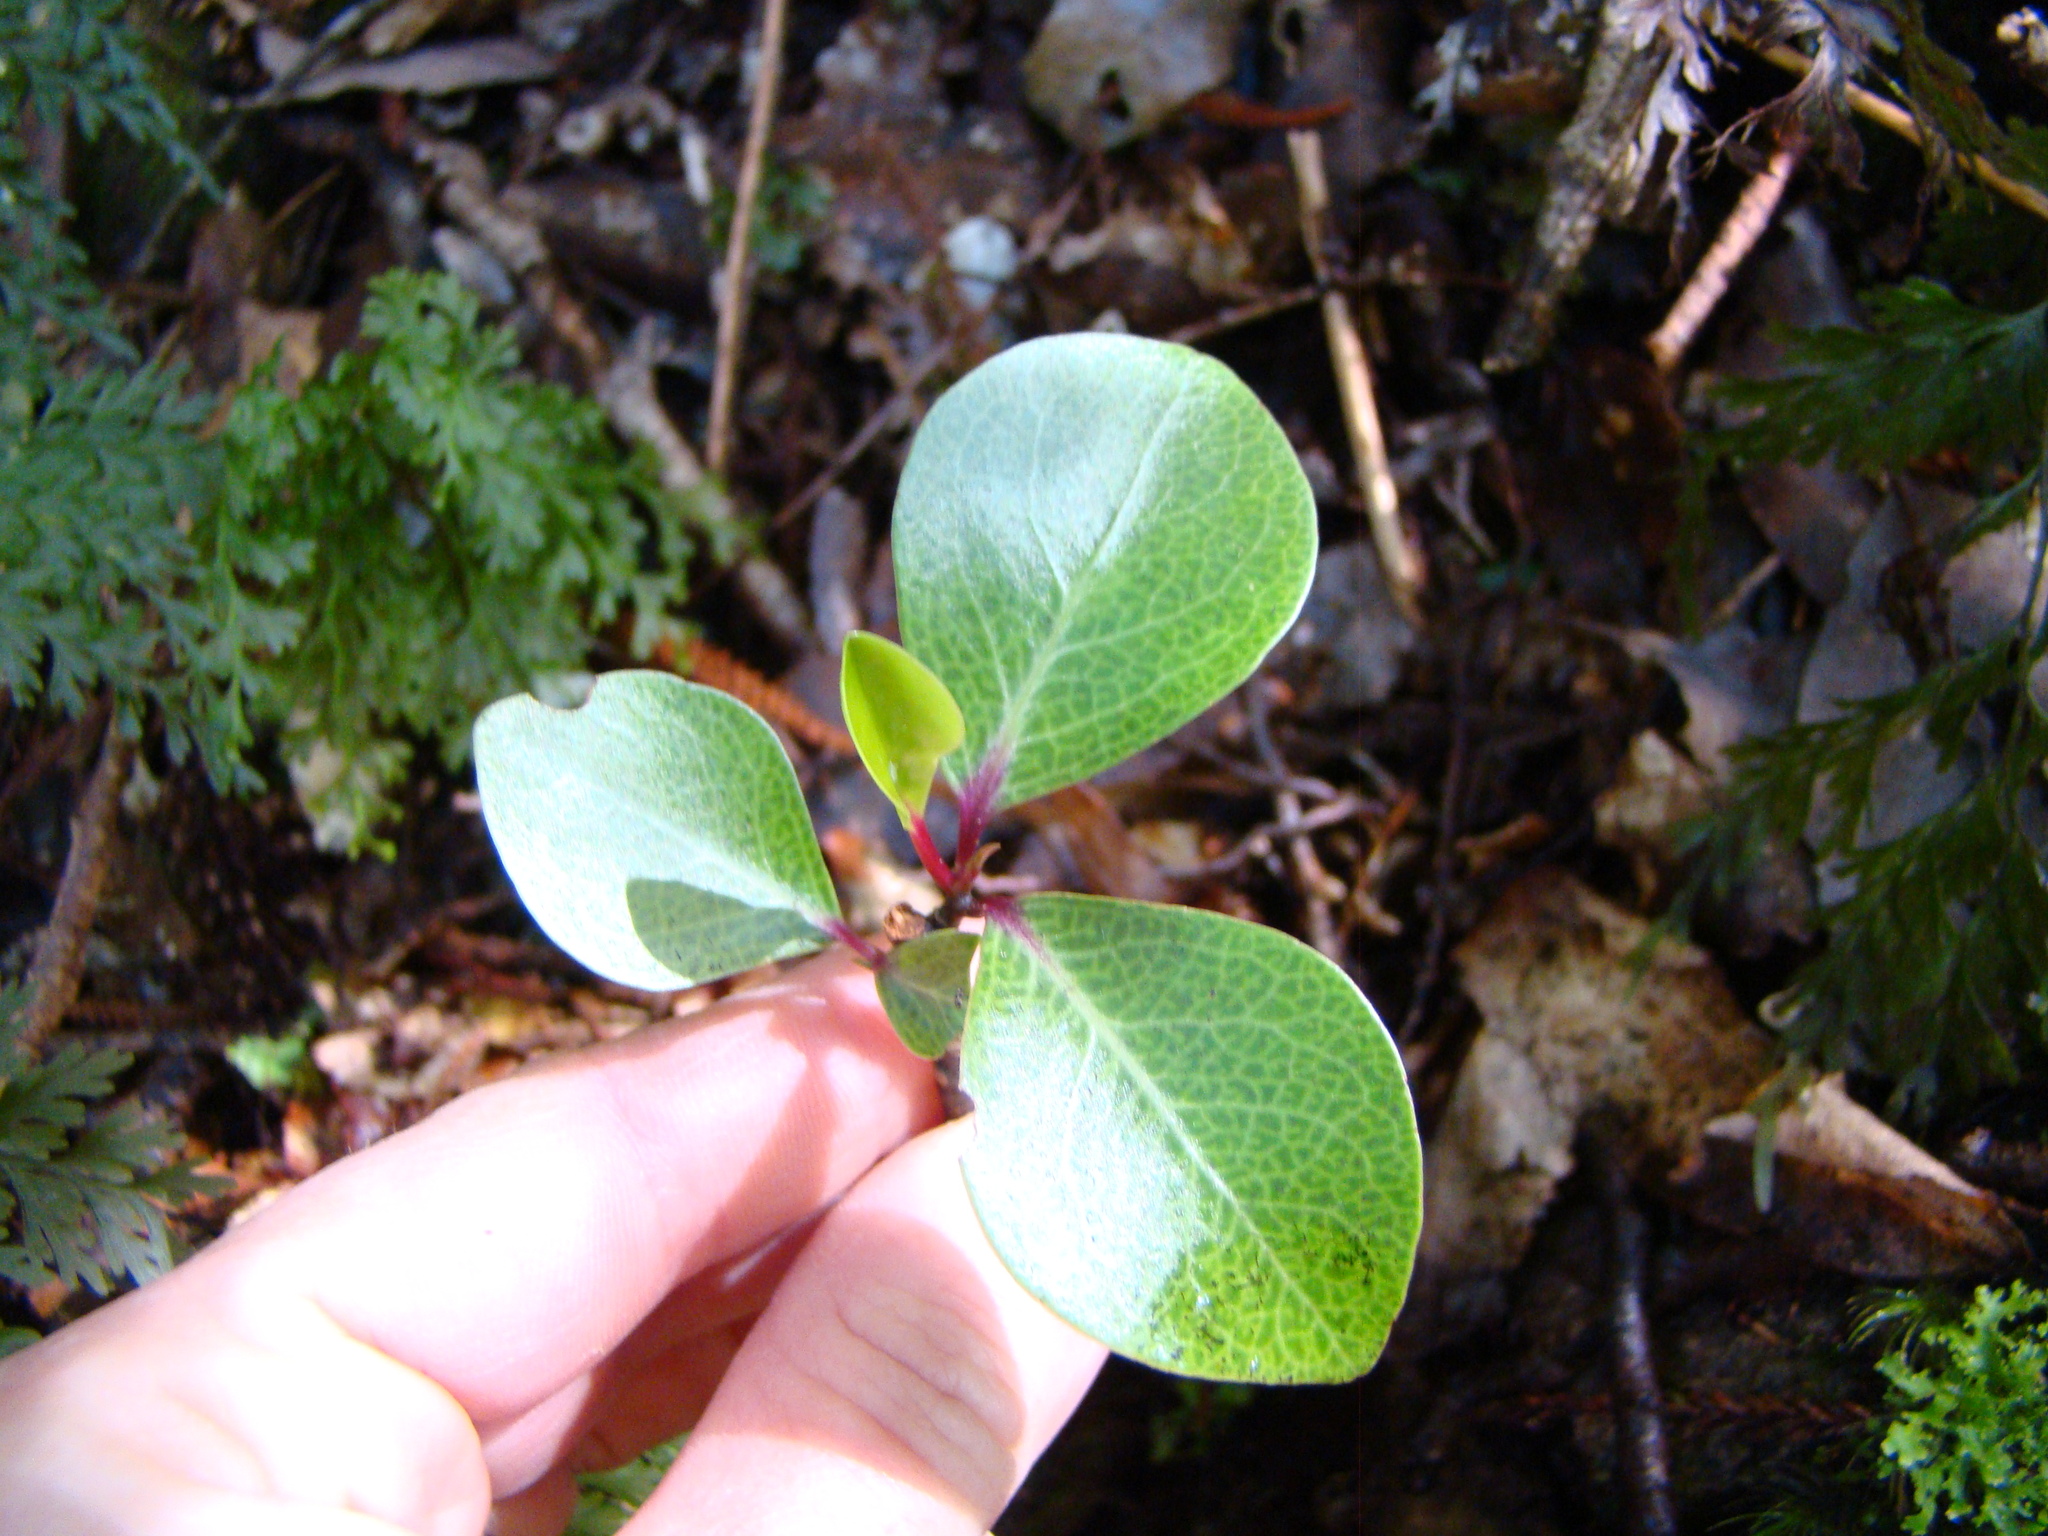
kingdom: Plantae
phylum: Tracheophyta
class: Magnoliopsida
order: Canellales
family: Winteraceae
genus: Pseudowintera
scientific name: Pseudowintera axillaris
